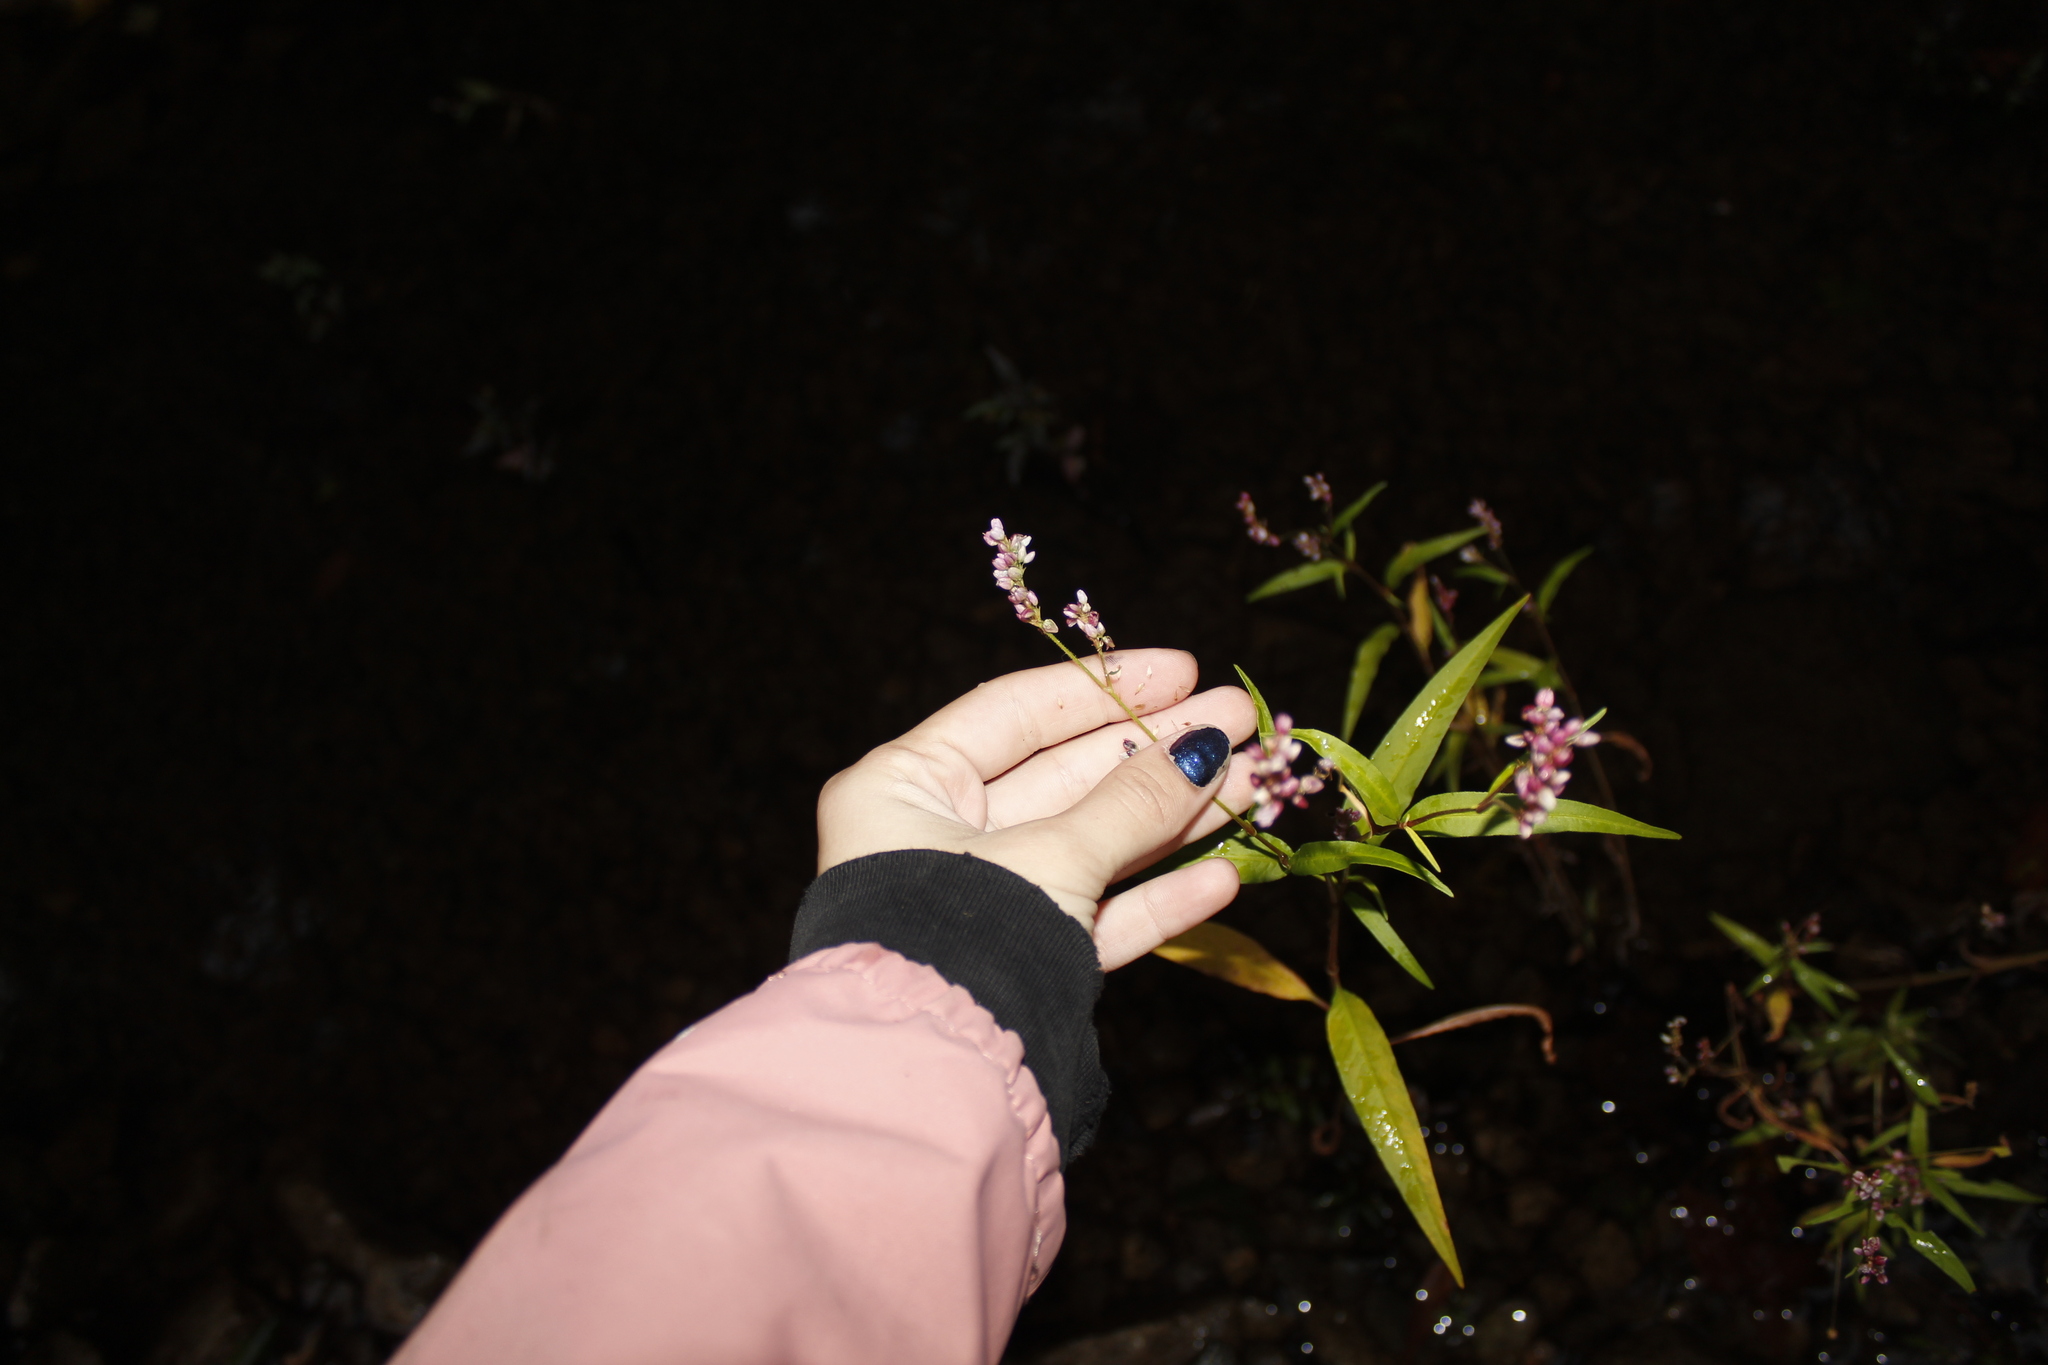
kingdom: Plantae
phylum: Tracheophyta
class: Magnoliopsida
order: Caryophyllales
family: Polygonaceae
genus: Persicaria
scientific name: Persicaria pensylvanica
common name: Pinkweed
